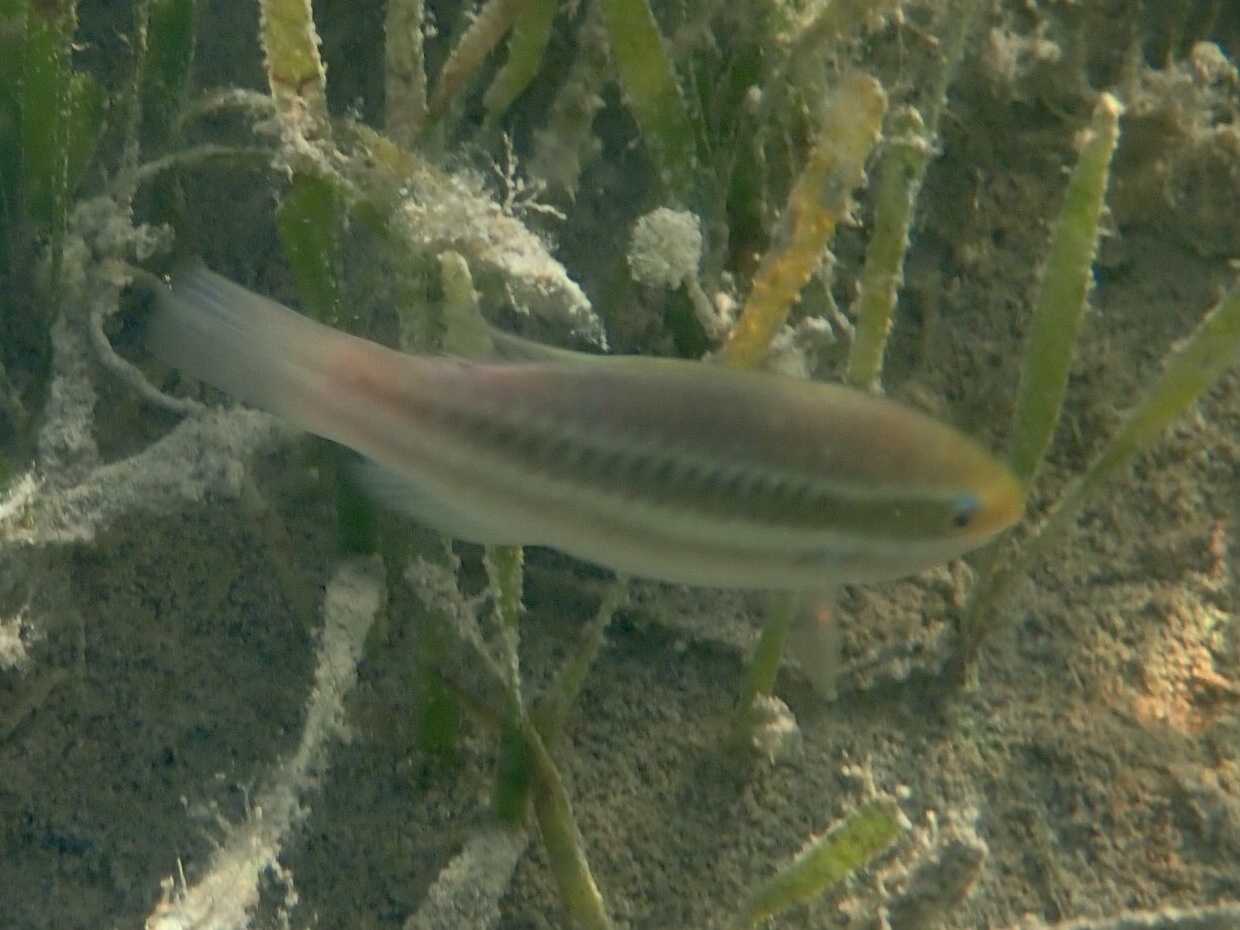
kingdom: Animalia
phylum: Chordata
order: Perciformes
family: Scaridae
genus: Scarus
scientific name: Scarus iseri
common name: Striped parrotfish
